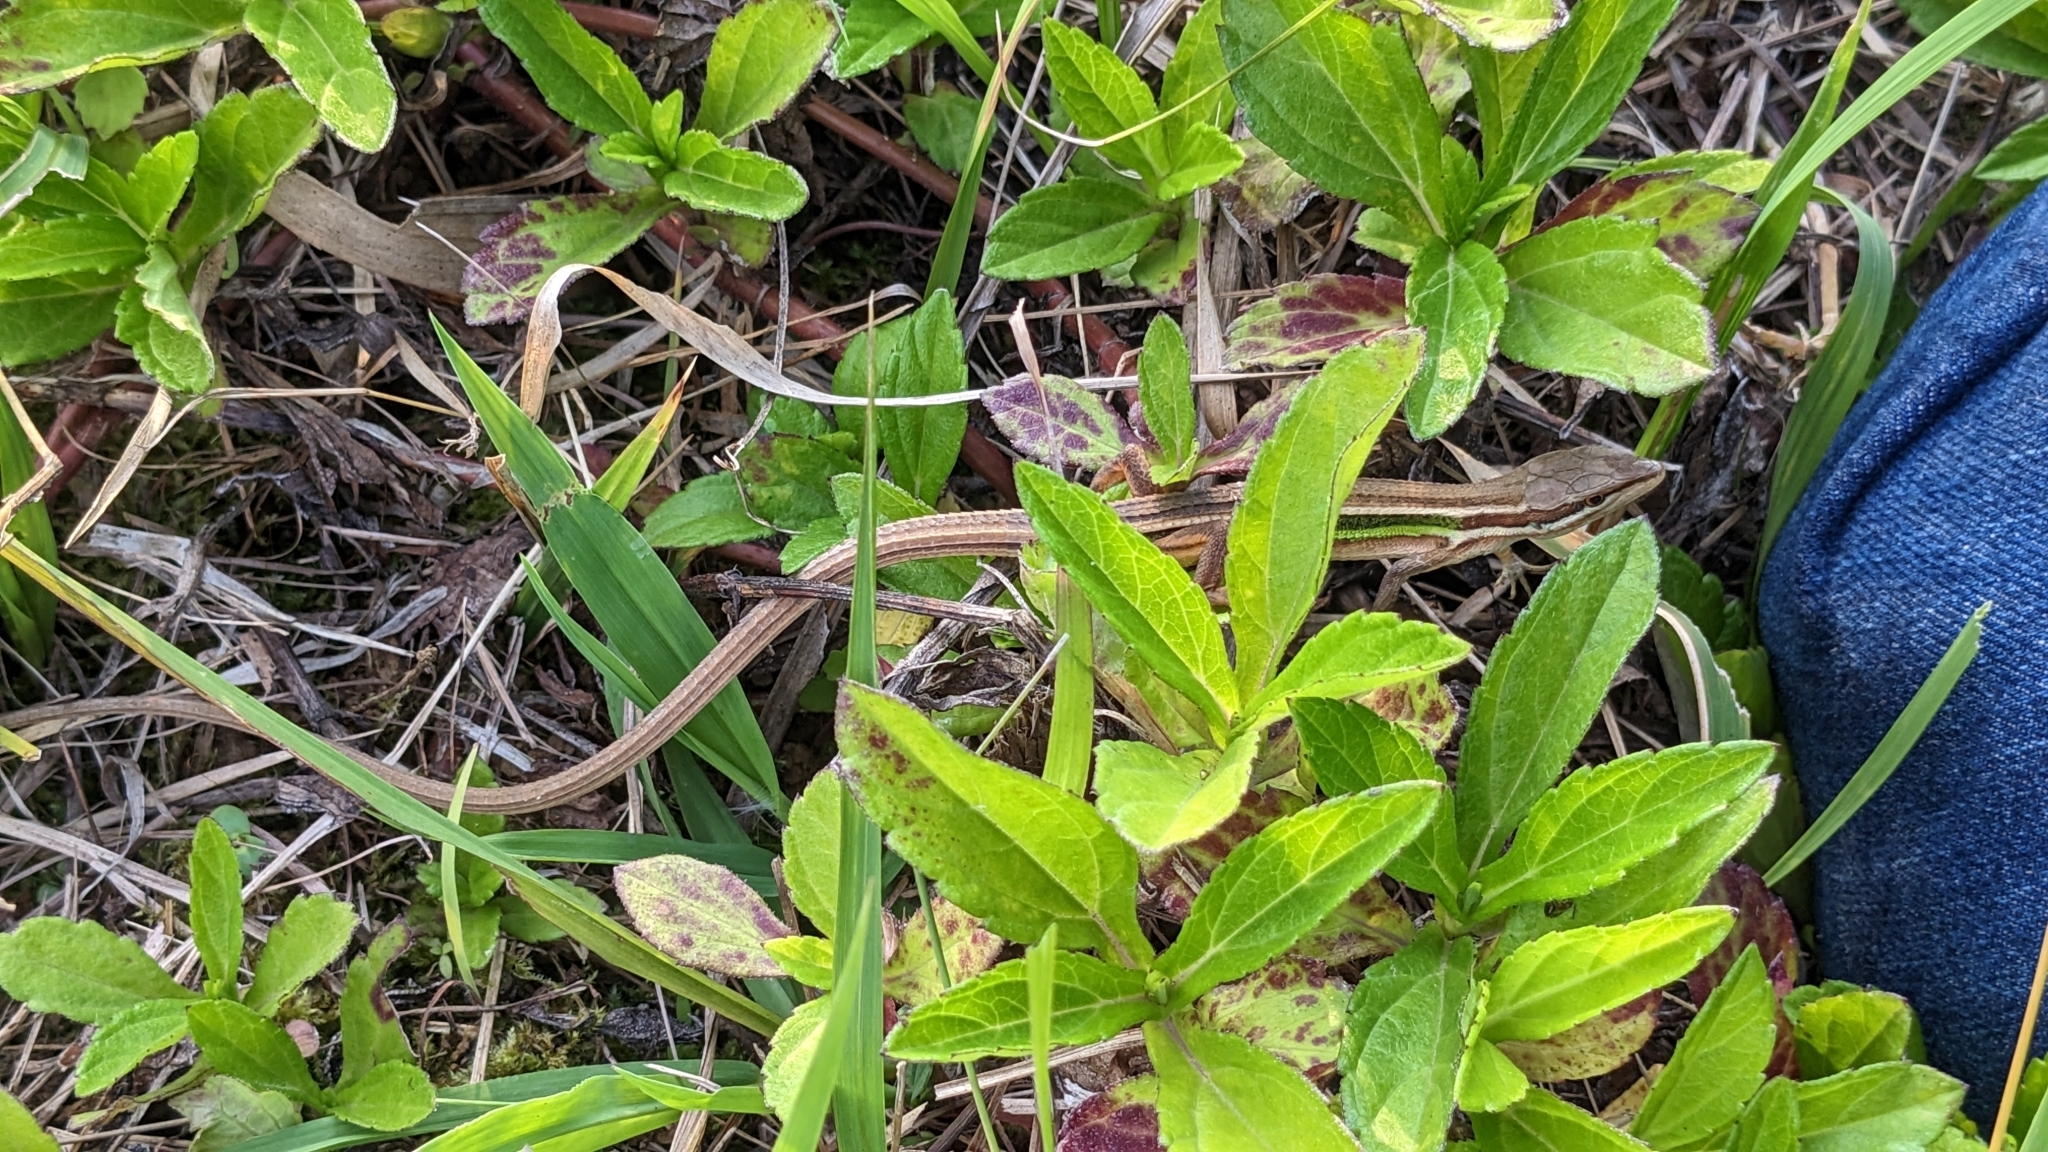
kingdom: Animalia
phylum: Chordata
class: Squamata
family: Lacertidae
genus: Takydromus
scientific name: Takydromus viridipunctatus
